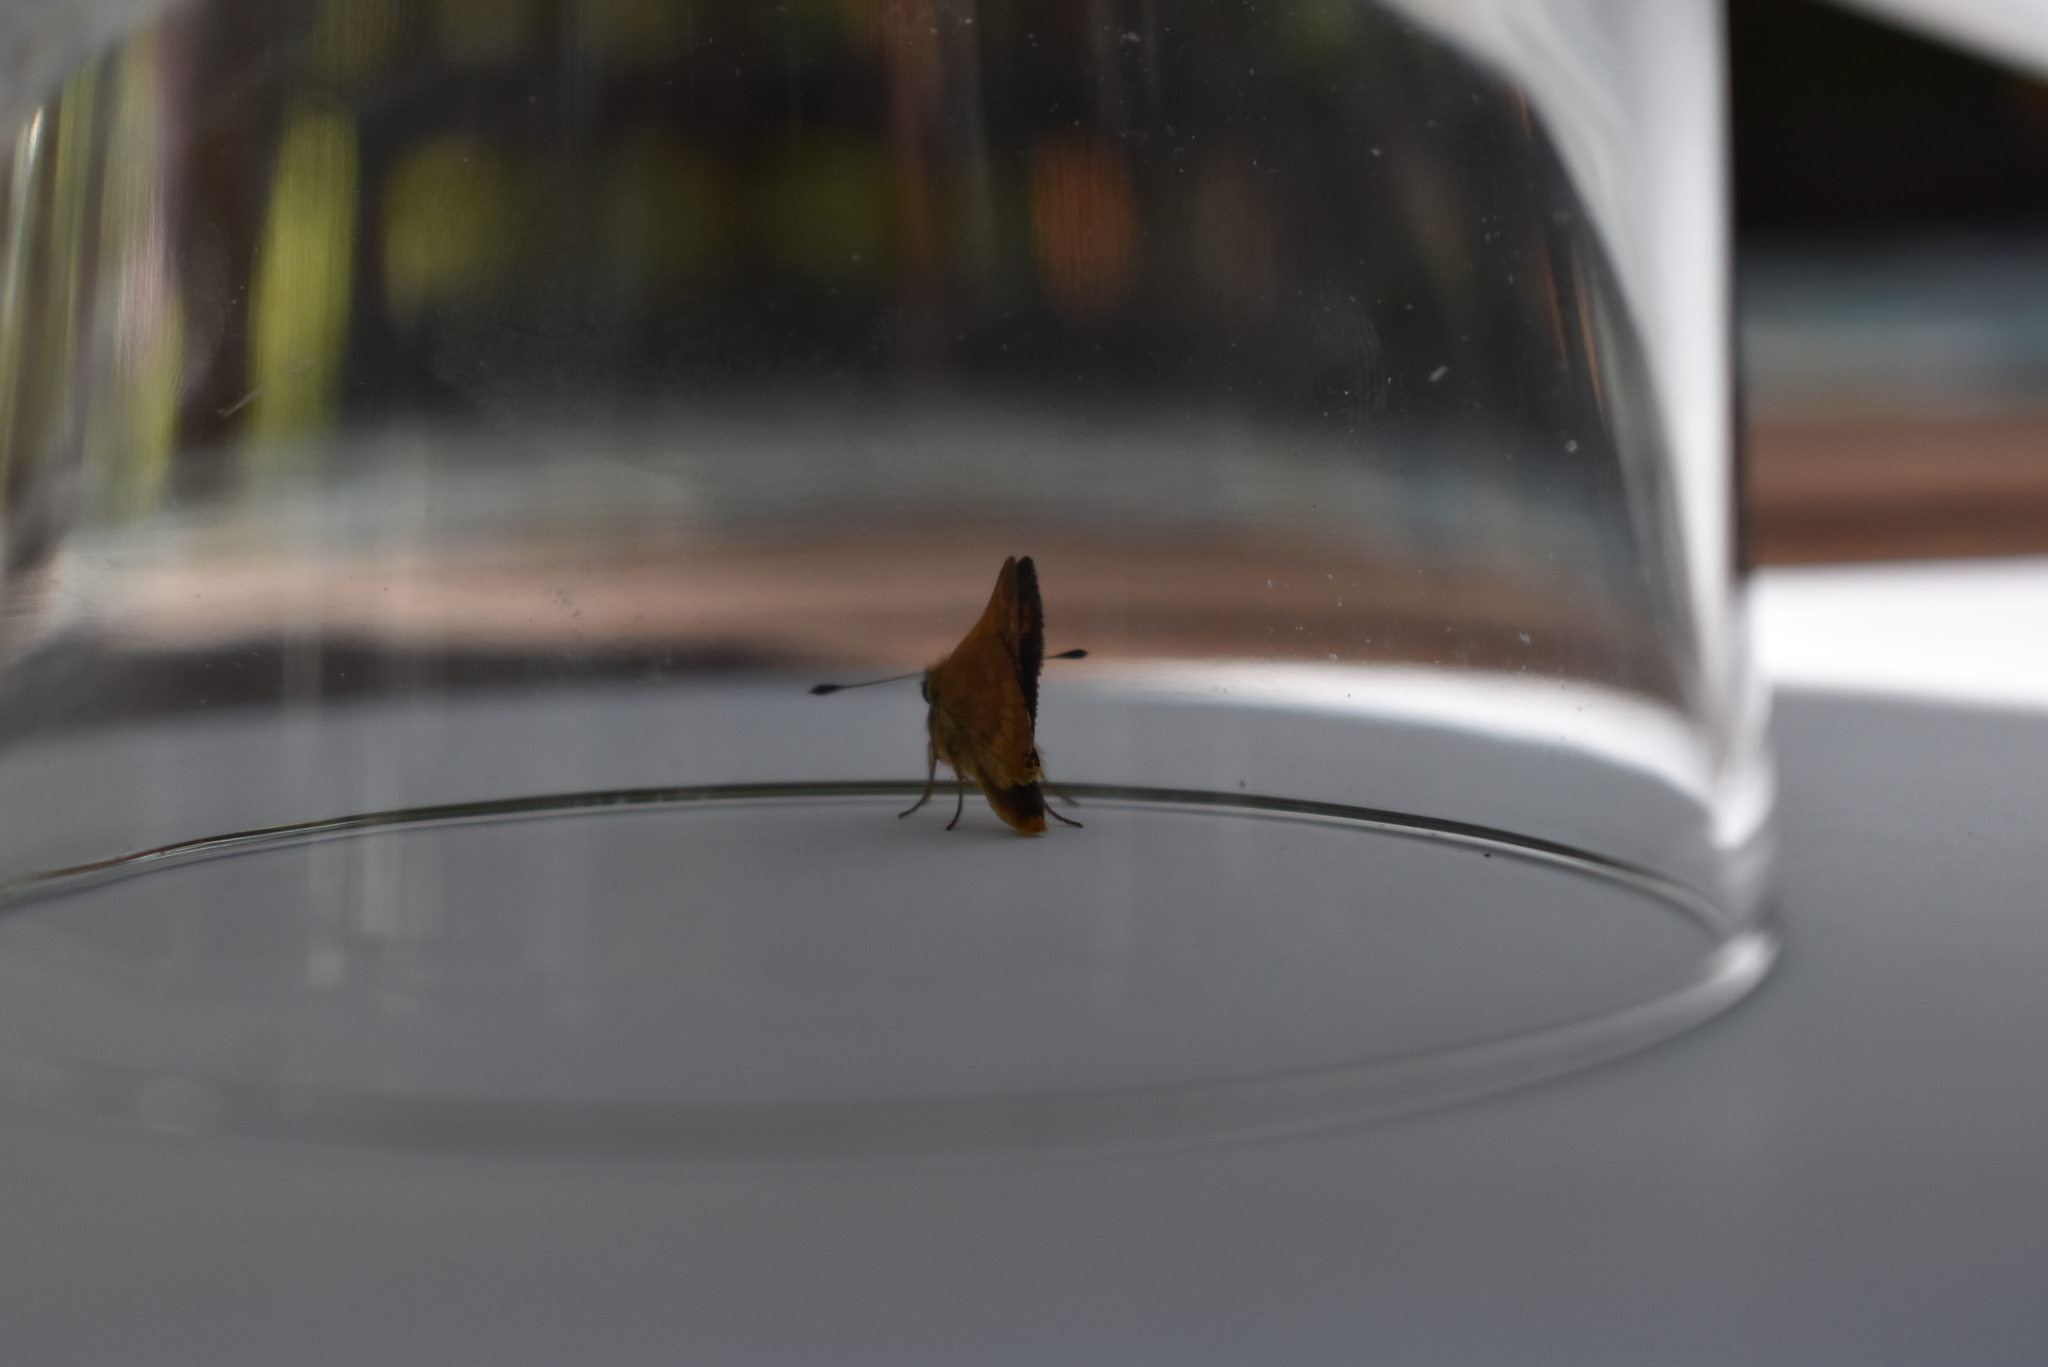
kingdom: Animalia
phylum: Arthropoda
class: Insecta
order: Lepidoptera
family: Hesperiidae
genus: Ochlodes
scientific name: Ochlodes sylvanoides
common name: Woodland skipper
